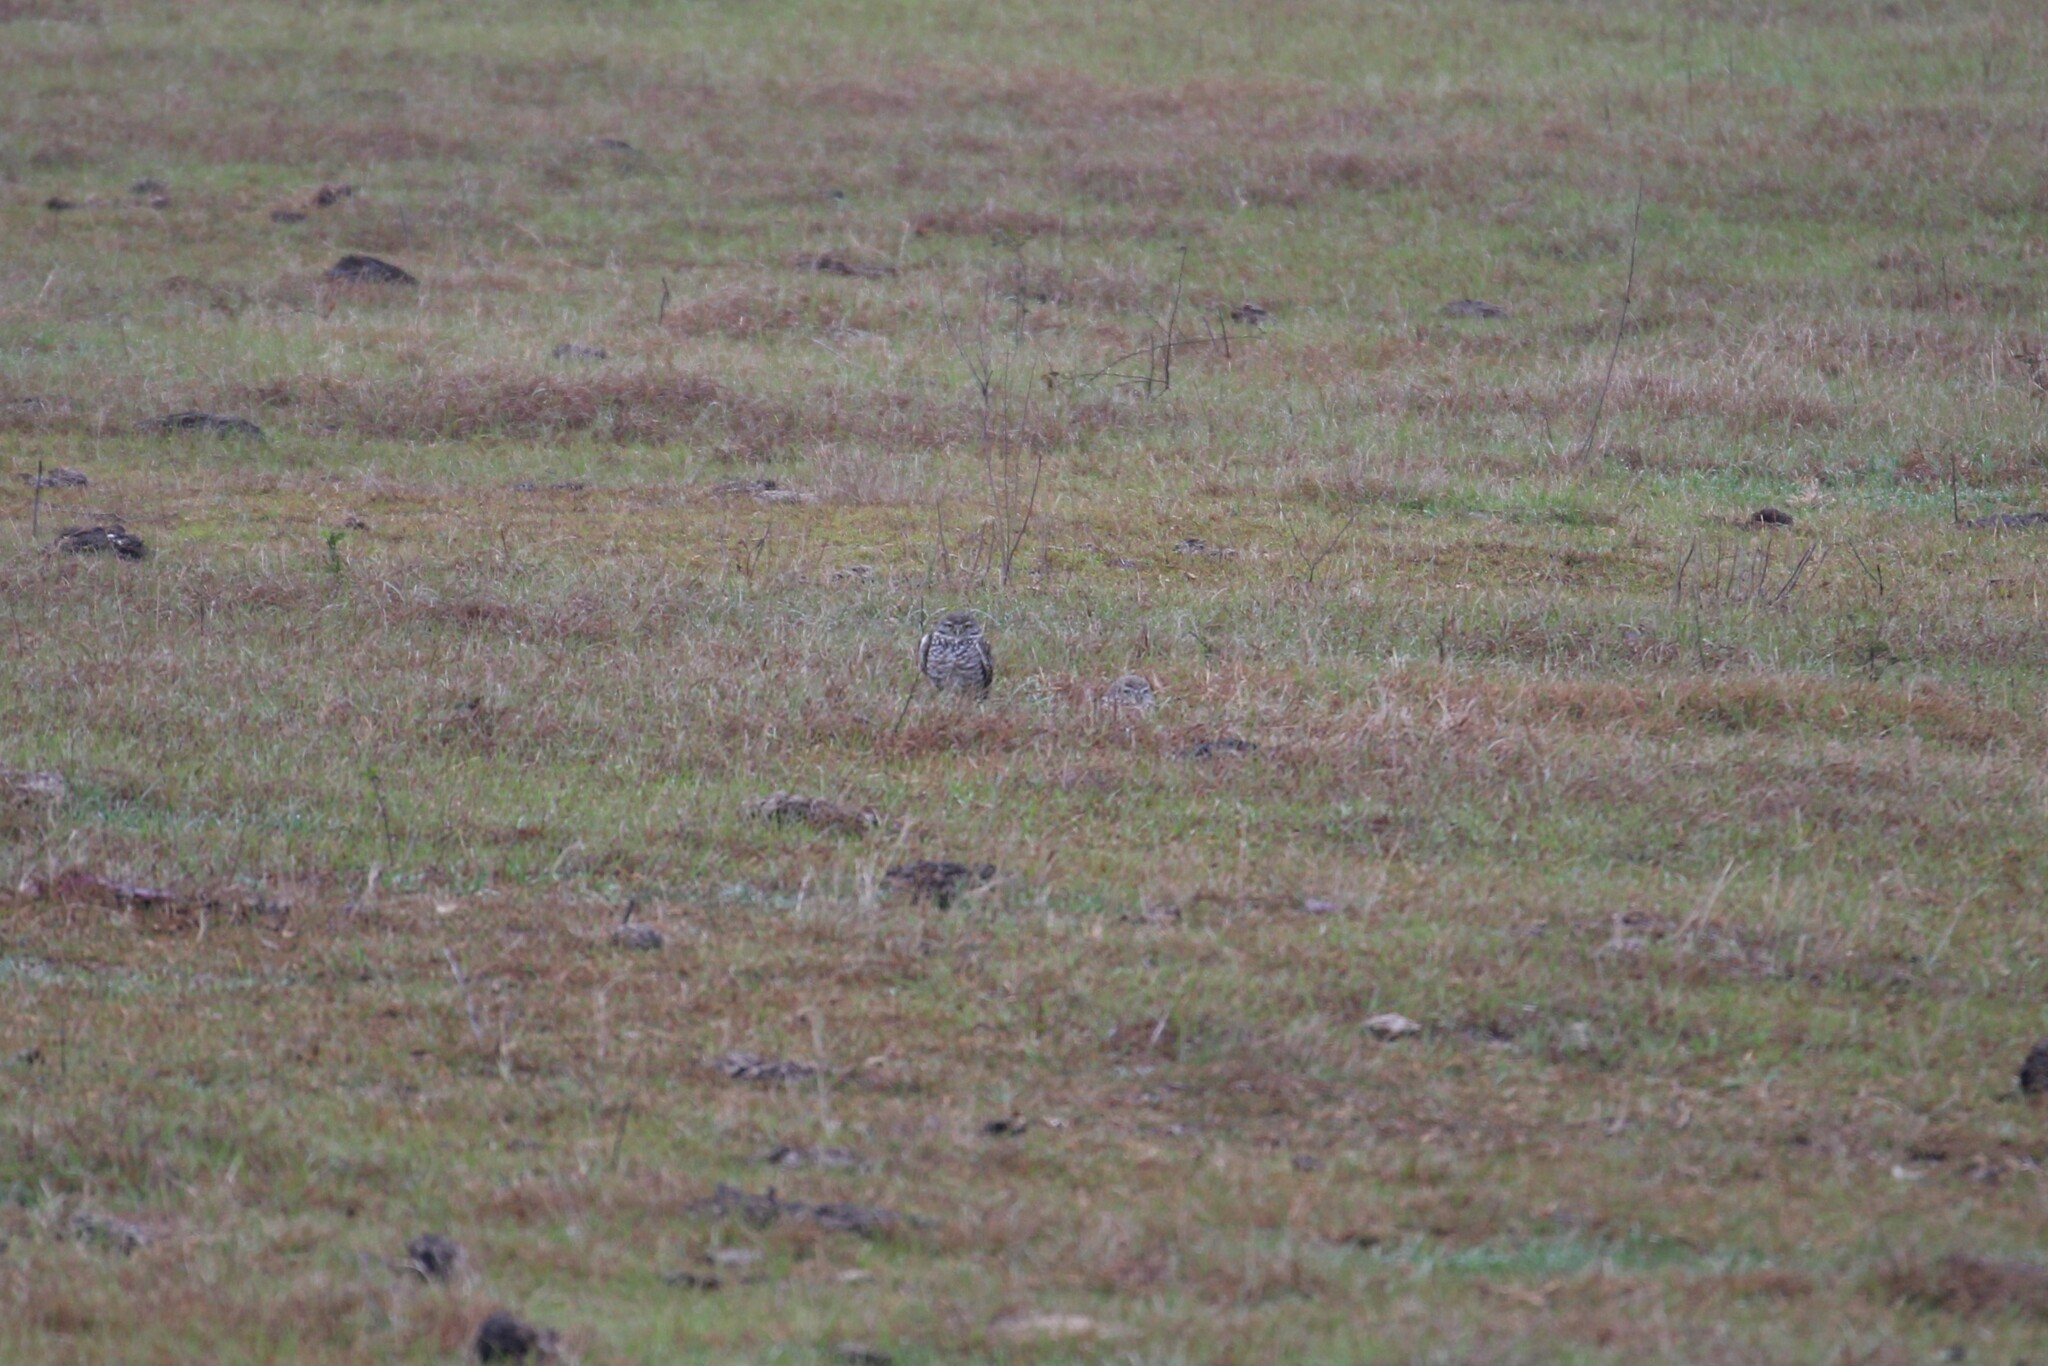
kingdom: Animalia
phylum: Chordata
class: Aves
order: Strigiformes
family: Strigidae
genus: Athene
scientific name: Athene cunicularia
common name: Burrowing owl
